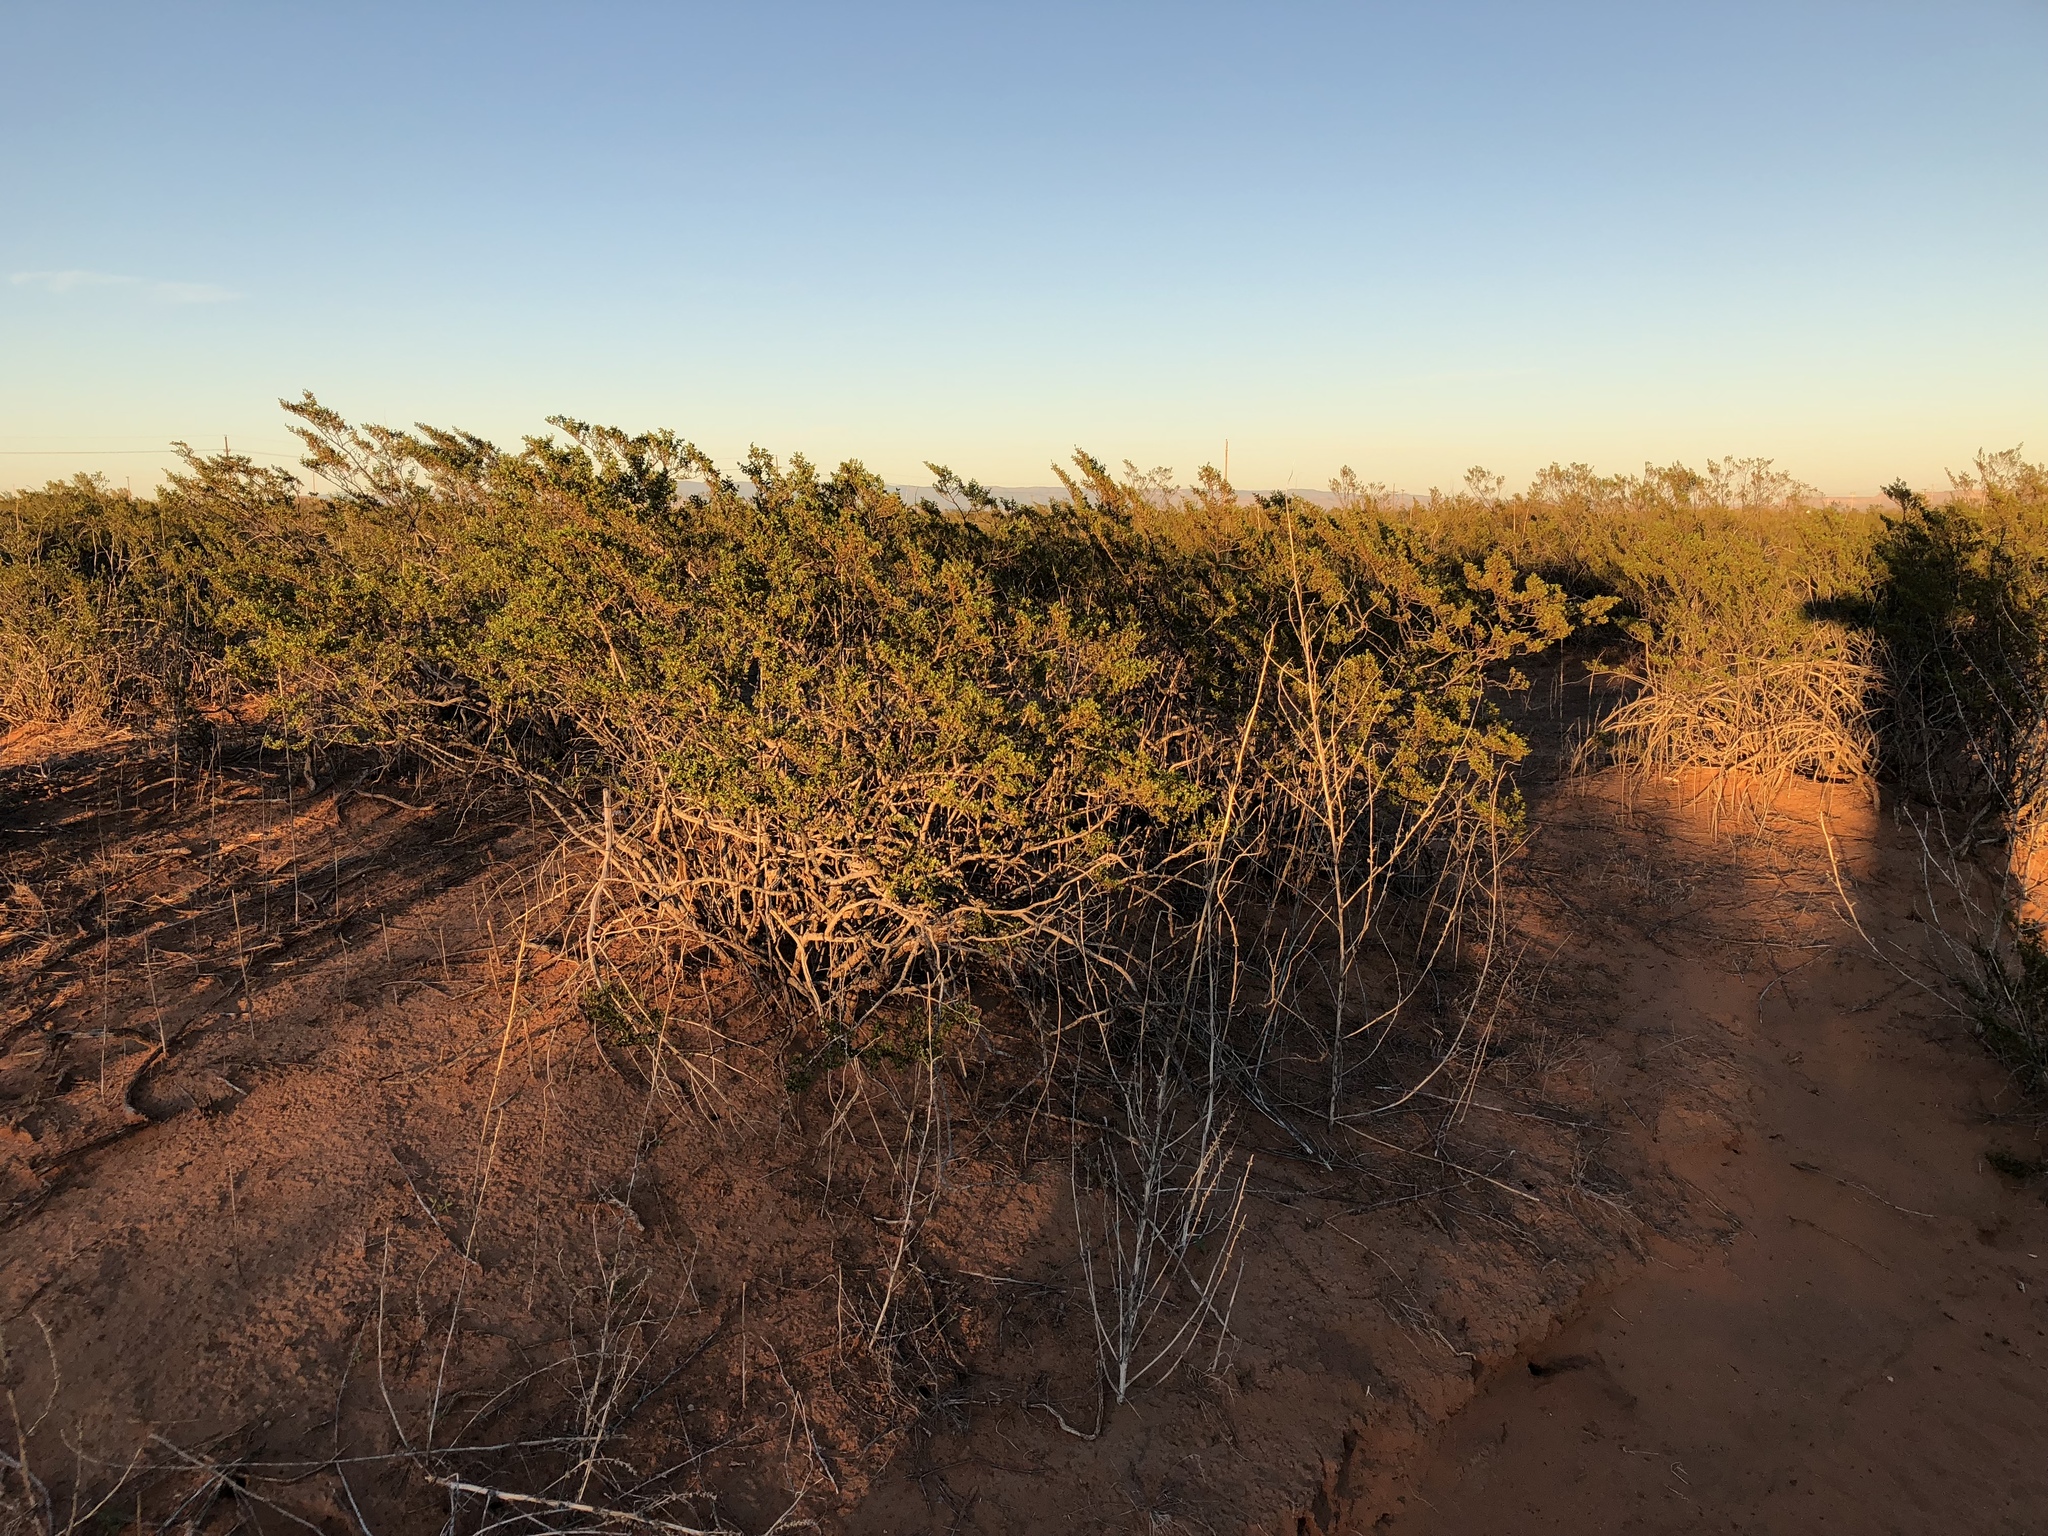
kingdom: Plantae
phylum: Tracheophyta
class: Magnoliopsida
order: Zygophyllales
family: Zygophyllaceae
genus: Larrea
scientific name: Larrea tridentata
